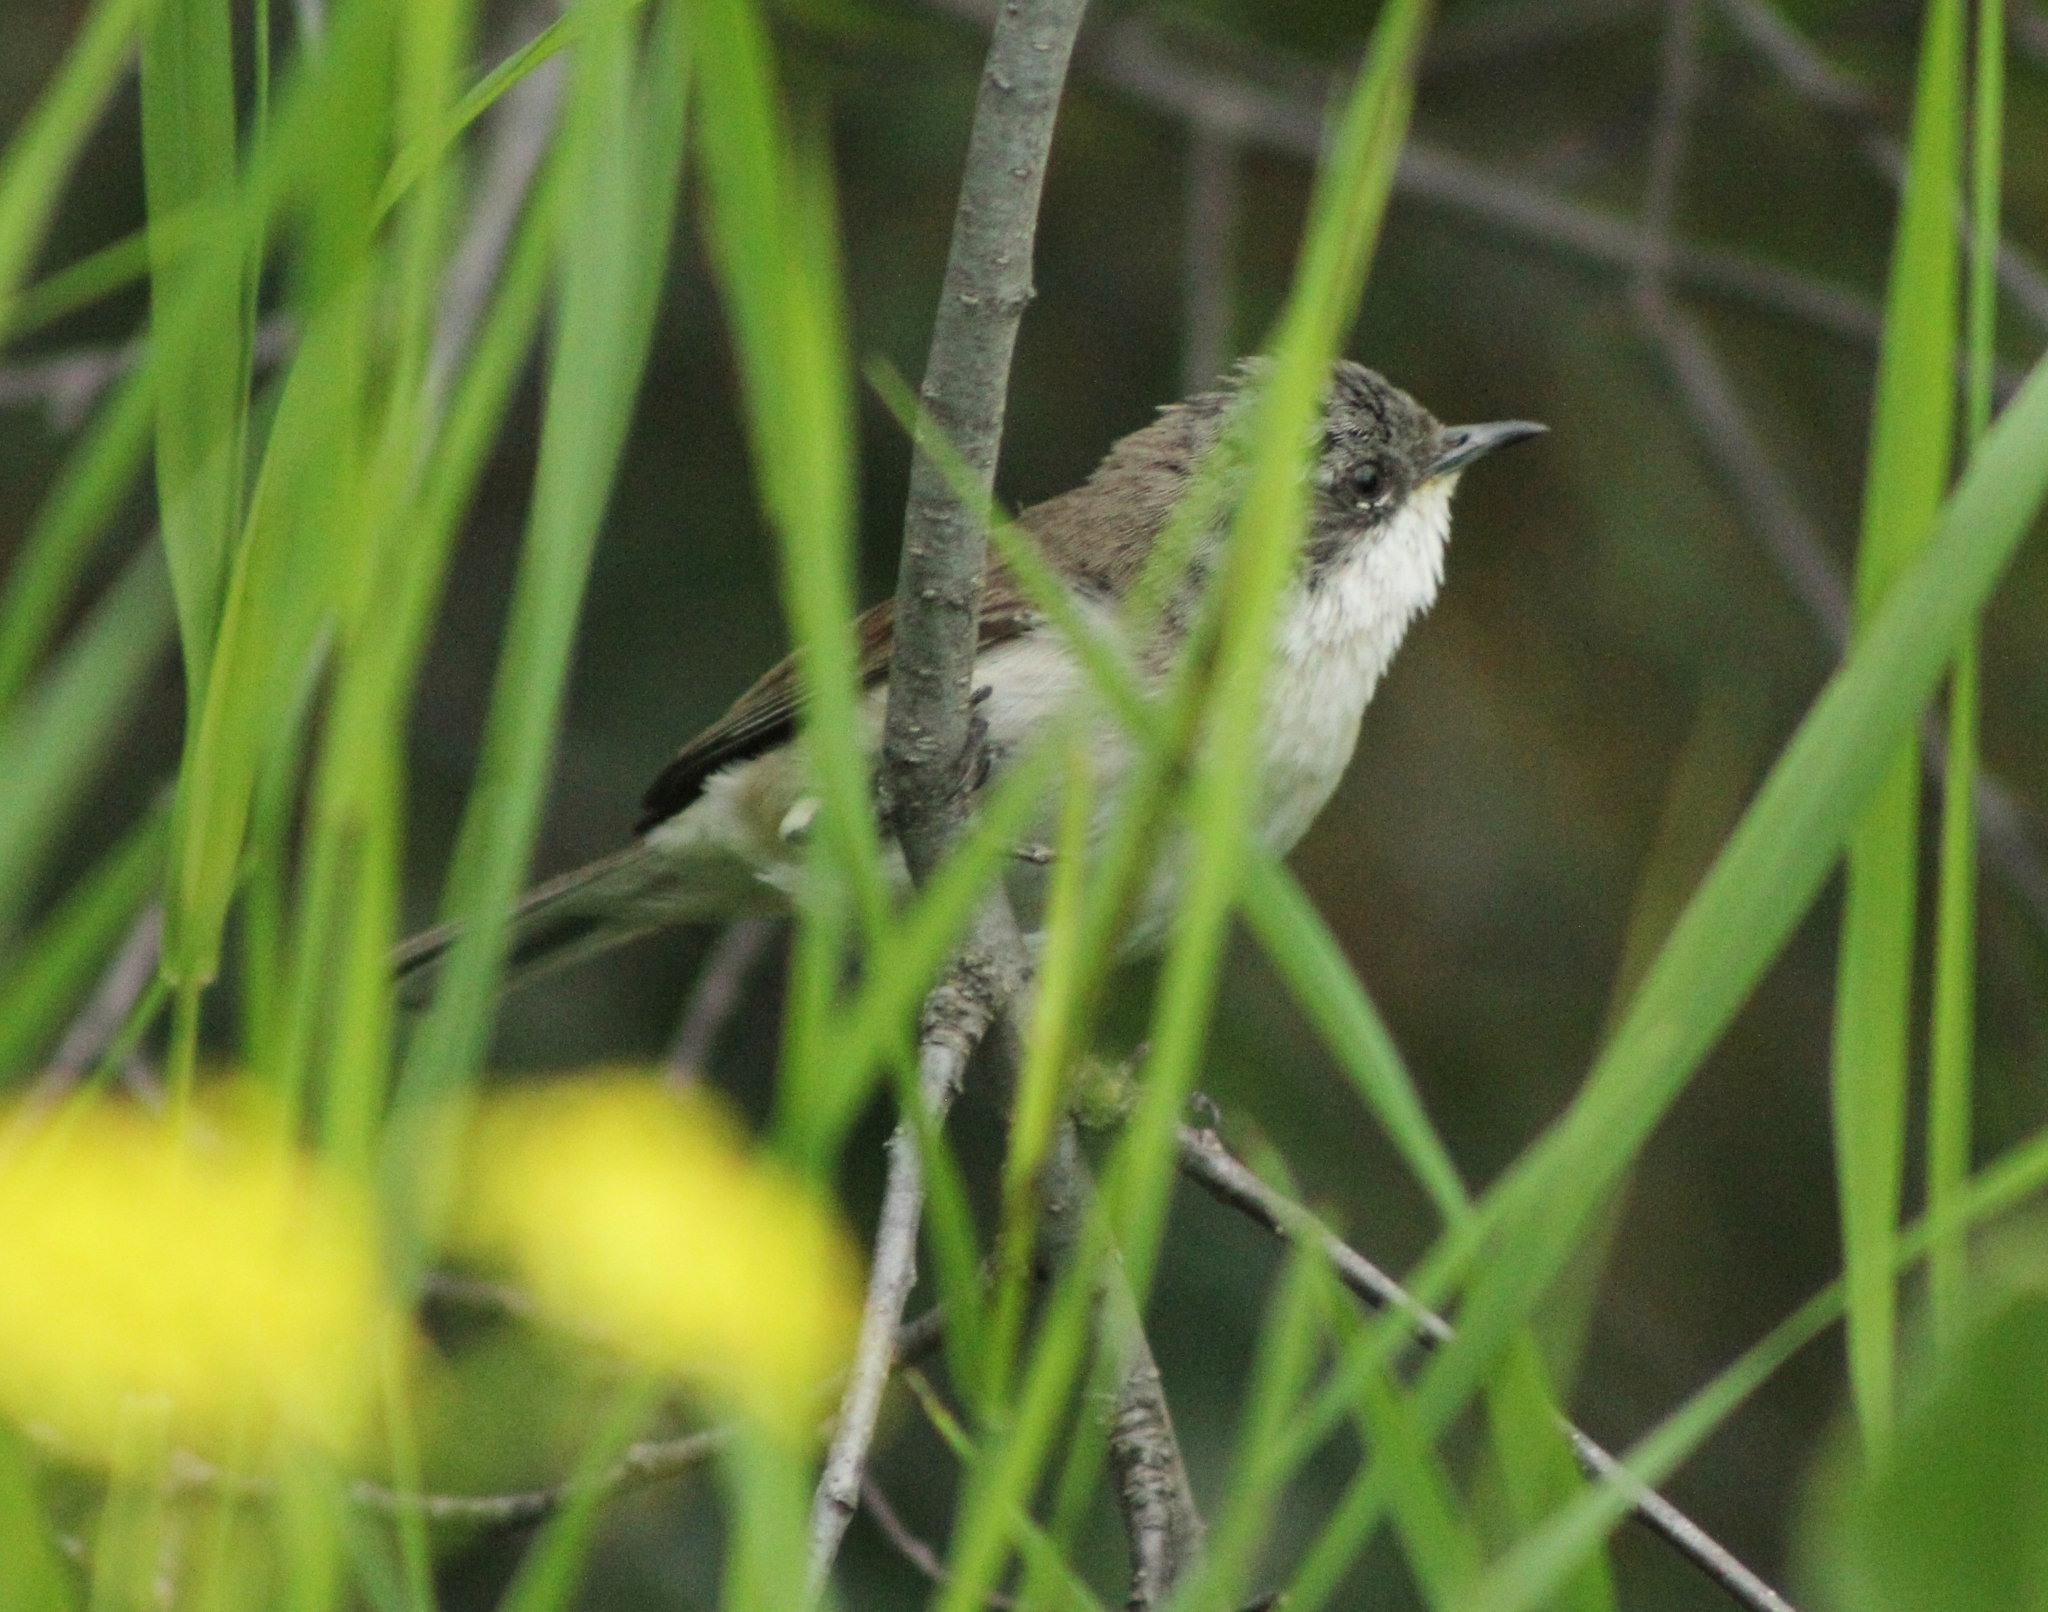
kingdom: Animalia
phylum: Chordata
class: Aves
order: Passeriformes
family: Sylviidae
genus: Sylvia
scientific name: Sylvia curruca
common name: Lesser whitethroat
